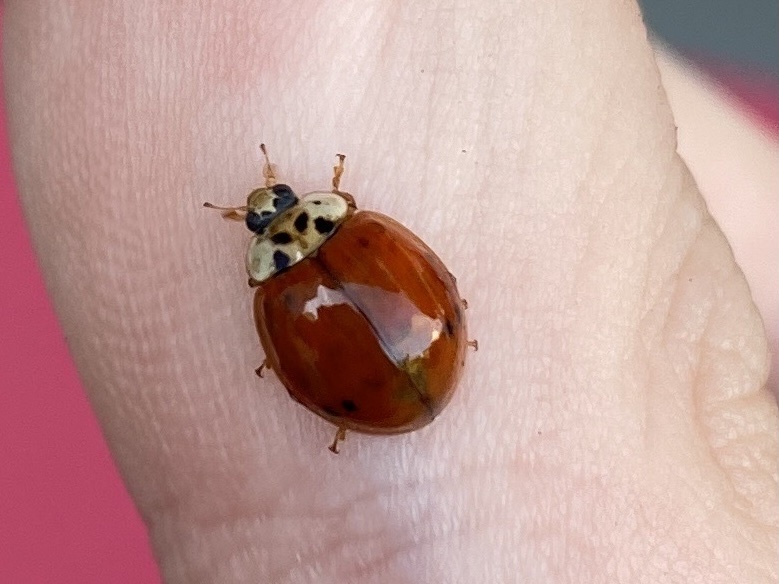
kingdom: Animalia
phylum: Arthropoda
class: Insecta
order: Coleoptera
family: Coccinellidae
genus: Harmonia
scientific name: Harmonia axyridis
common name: Harlequin ladybird
